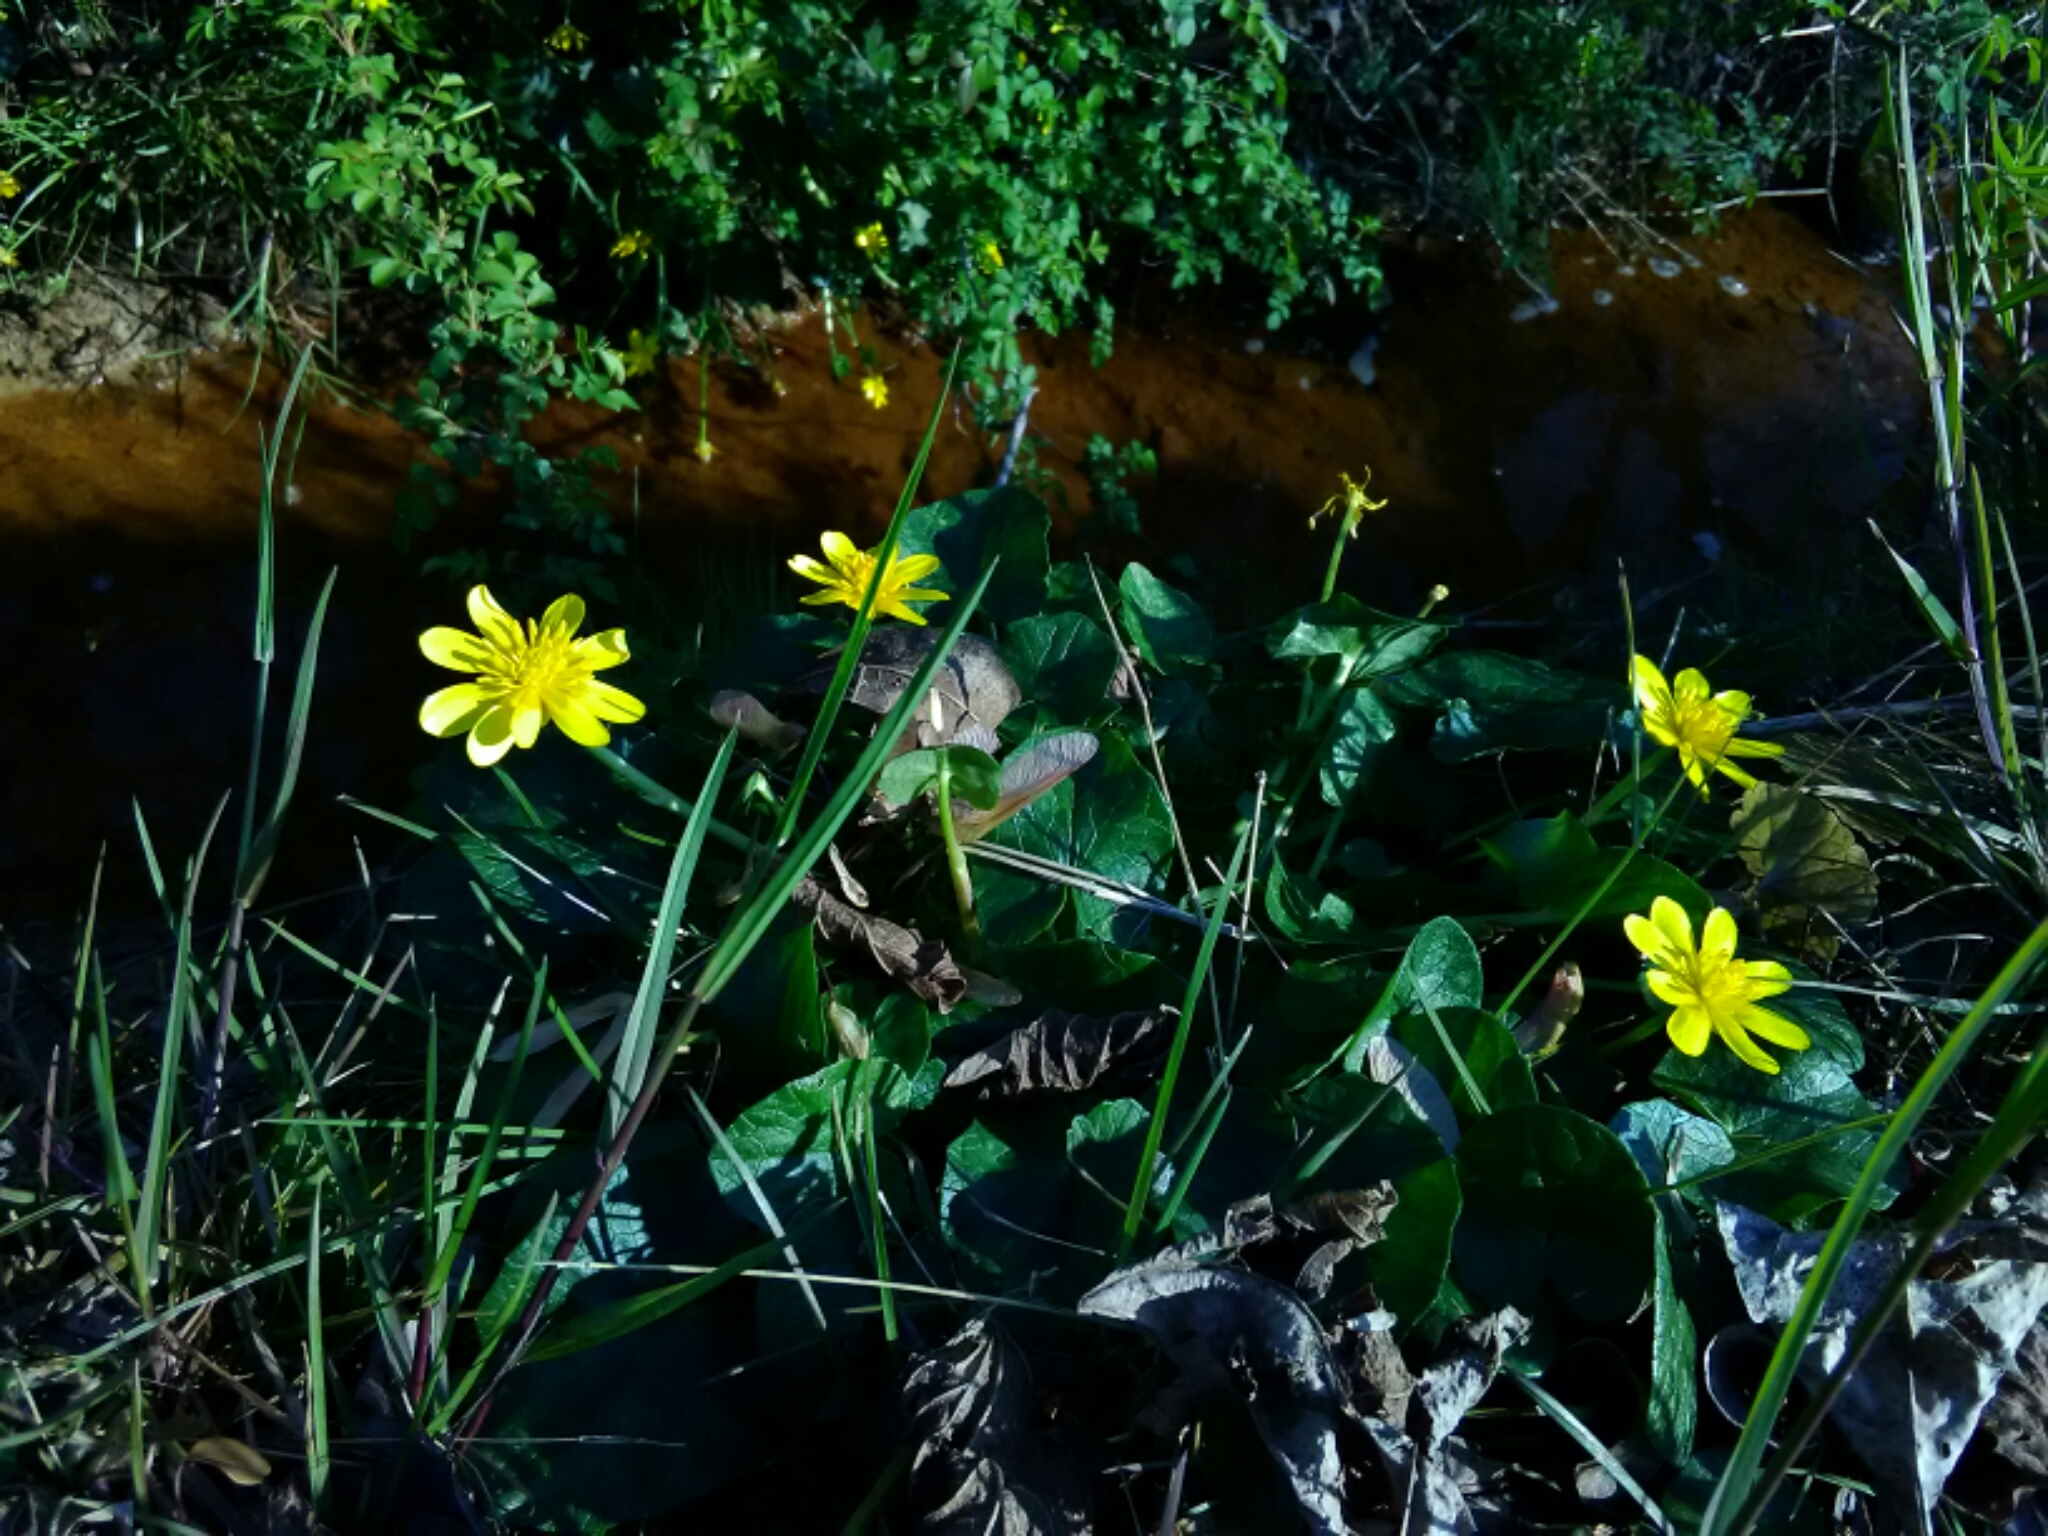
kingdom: Plantae
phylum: Tracheophyta
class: Magnoliopsida
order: Ranunculales
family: Ranunculaceae
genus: Ficaria
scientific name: Ficaria verna
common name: Lesser celandine
